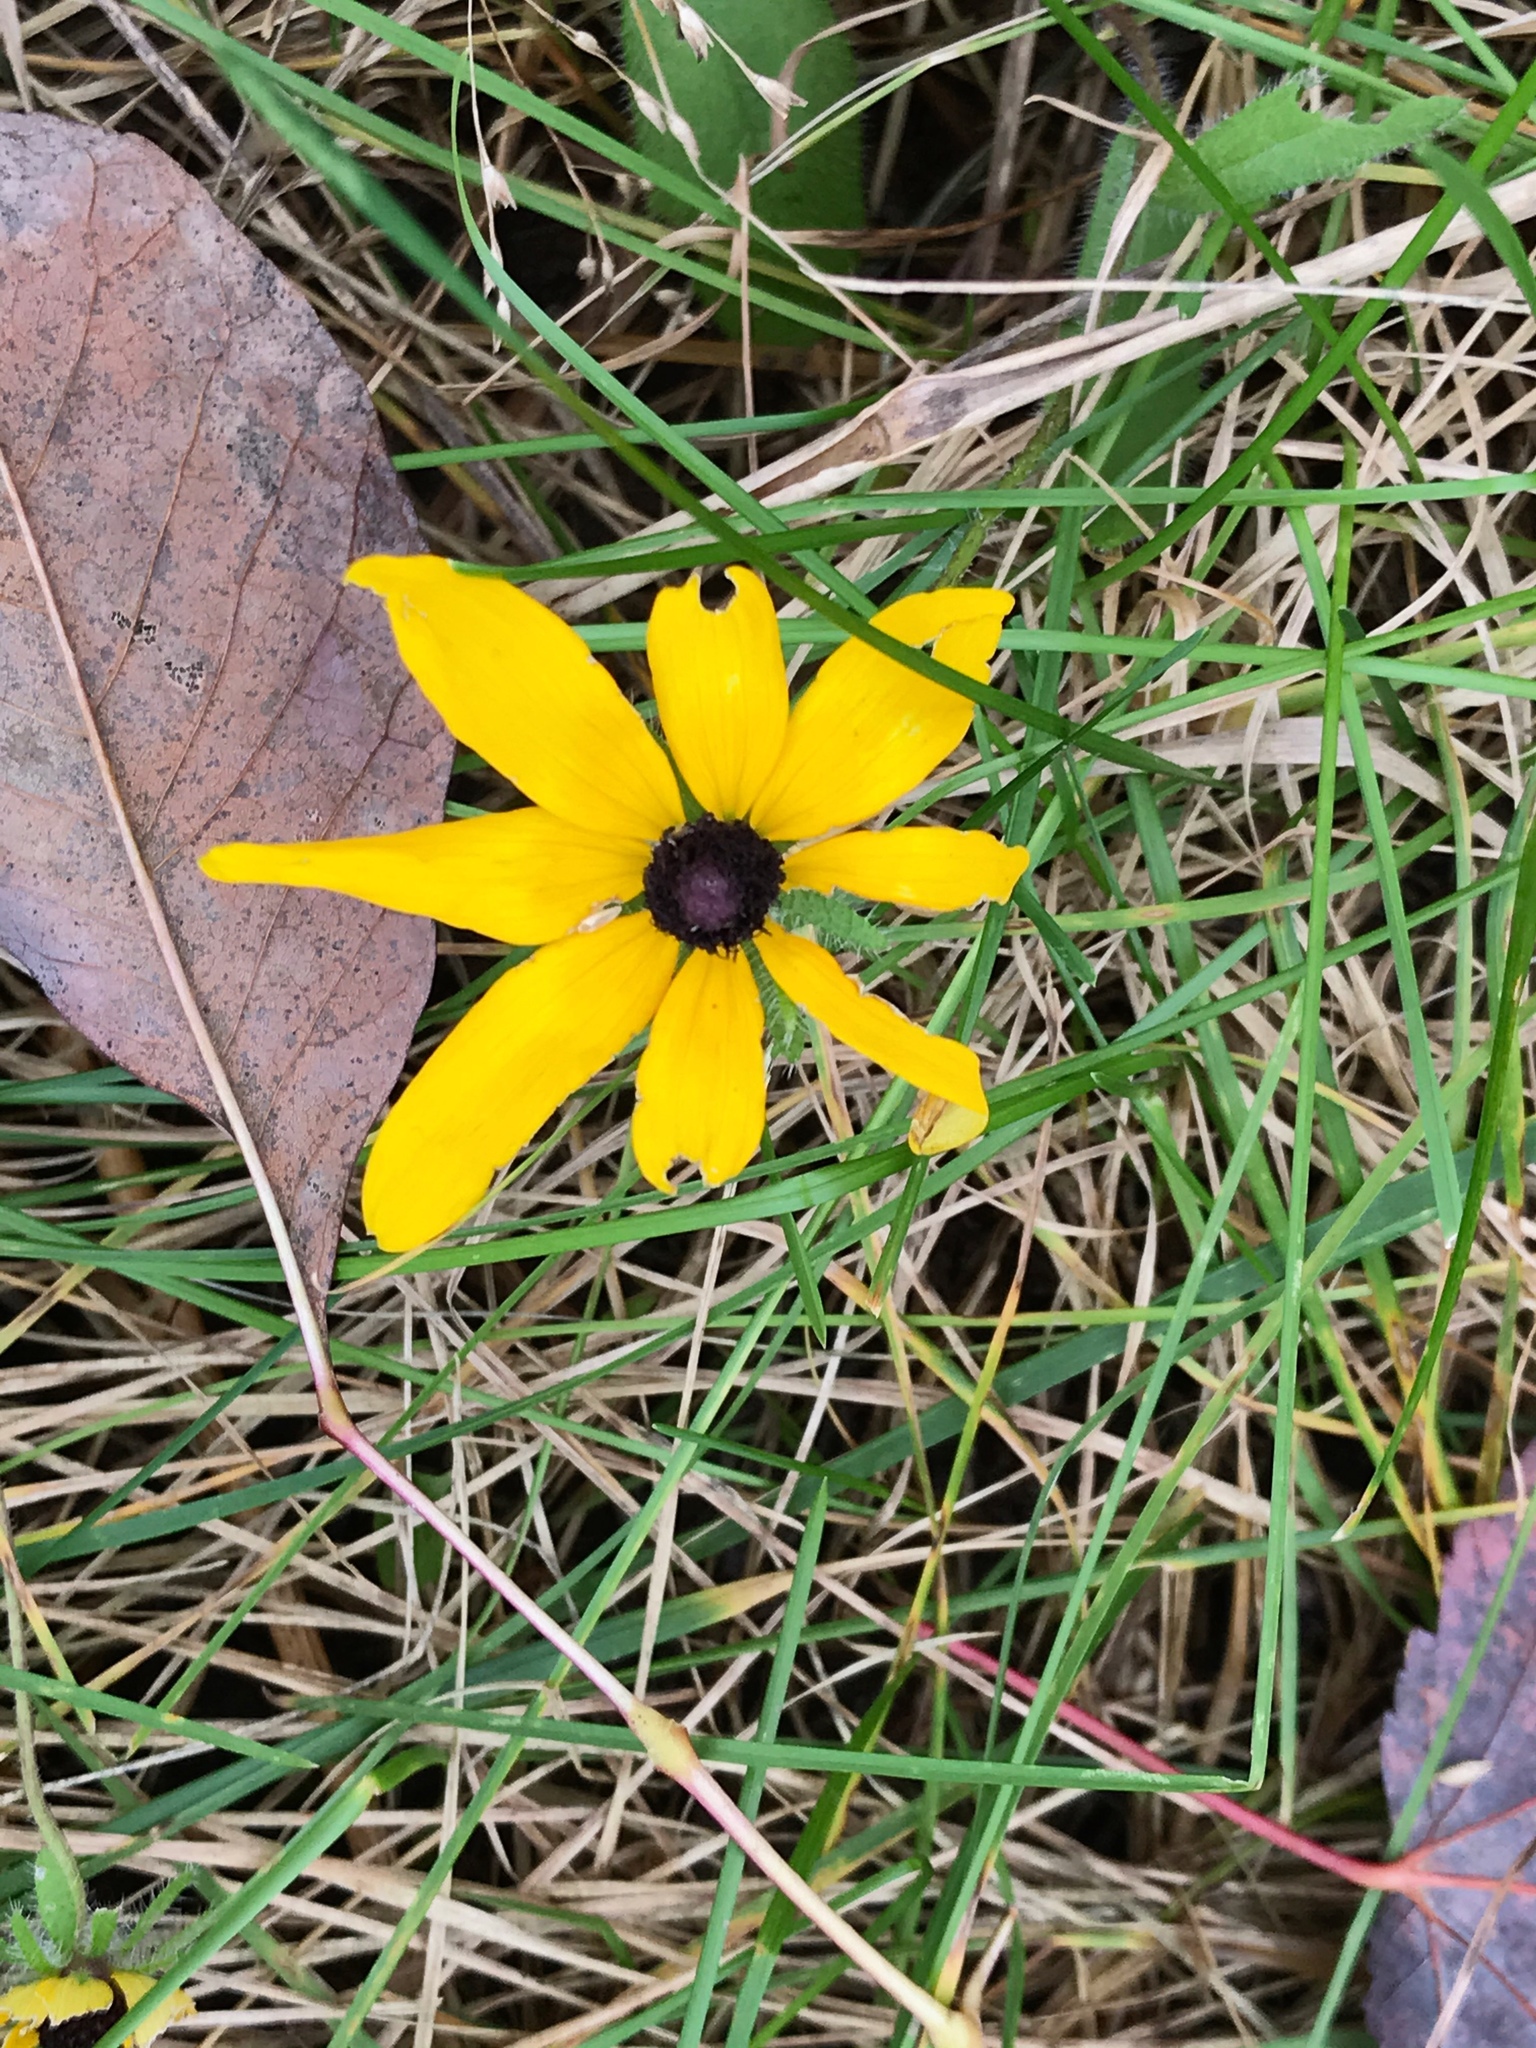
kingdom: Plantae
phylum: Tracheophyta
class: Magnoliopsida
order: Asterales
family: Asteraceae
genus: Rudbeckia
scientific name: Rudbeckia hirta
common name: Black-eyed-susan
